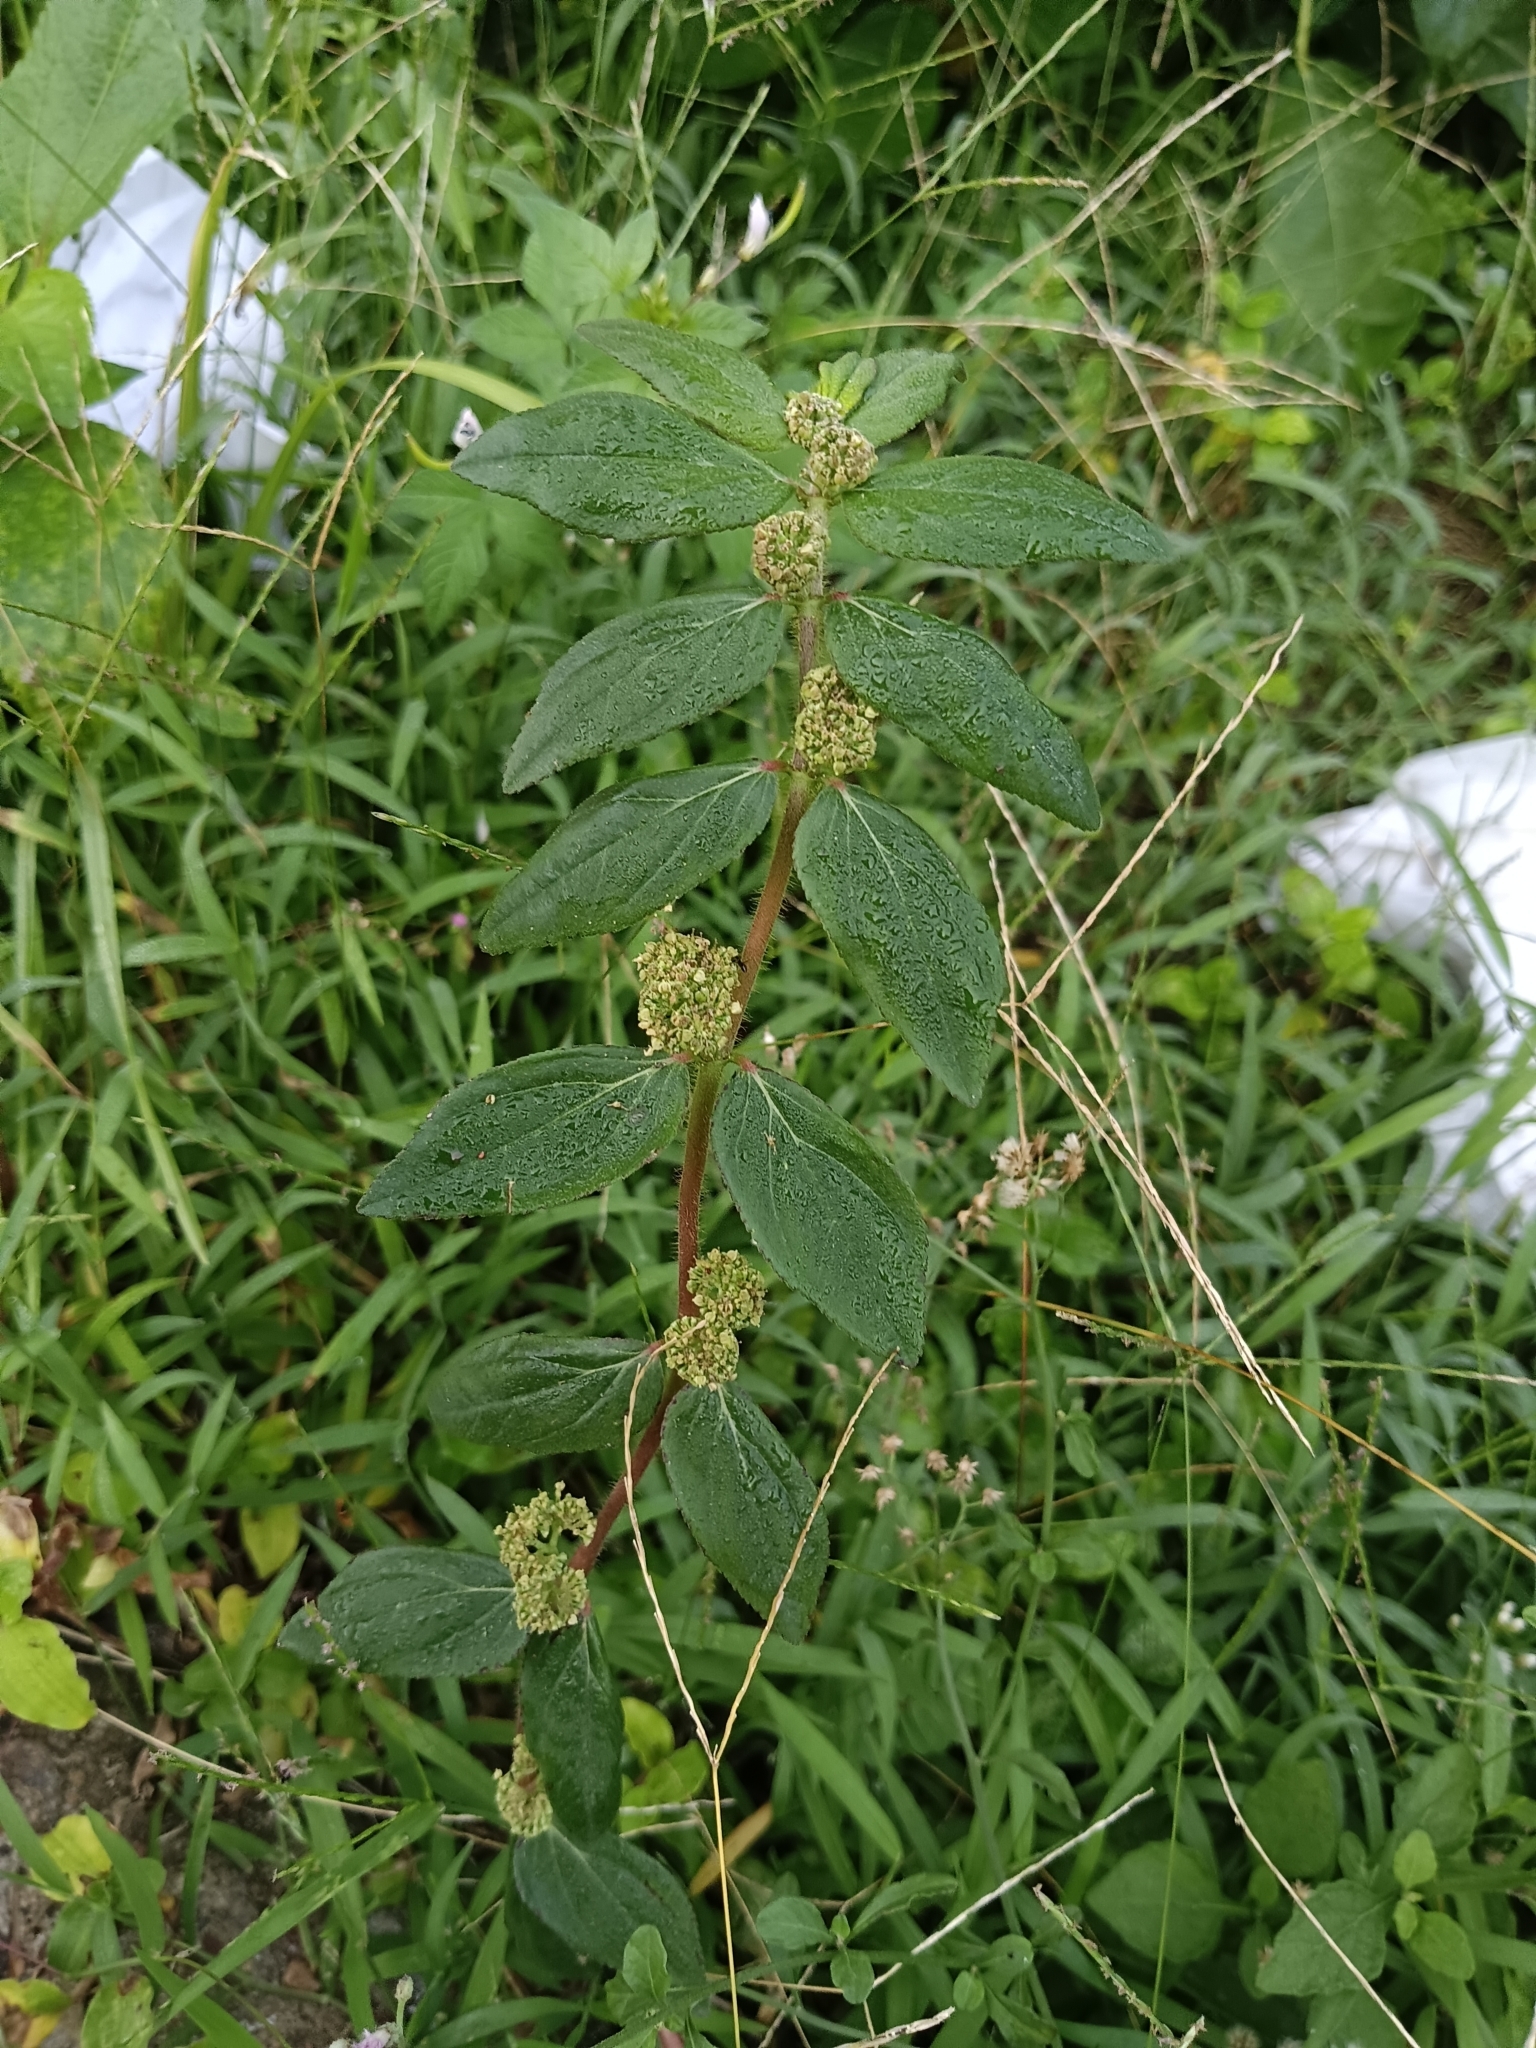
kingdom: Plantae
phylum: Tracheophyta
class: Magnoliopsida
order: Malpighiales
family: Euphorbiaceae
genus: Euphorbia
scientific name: Euphorbia hirta
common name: Pillpod sandmat
